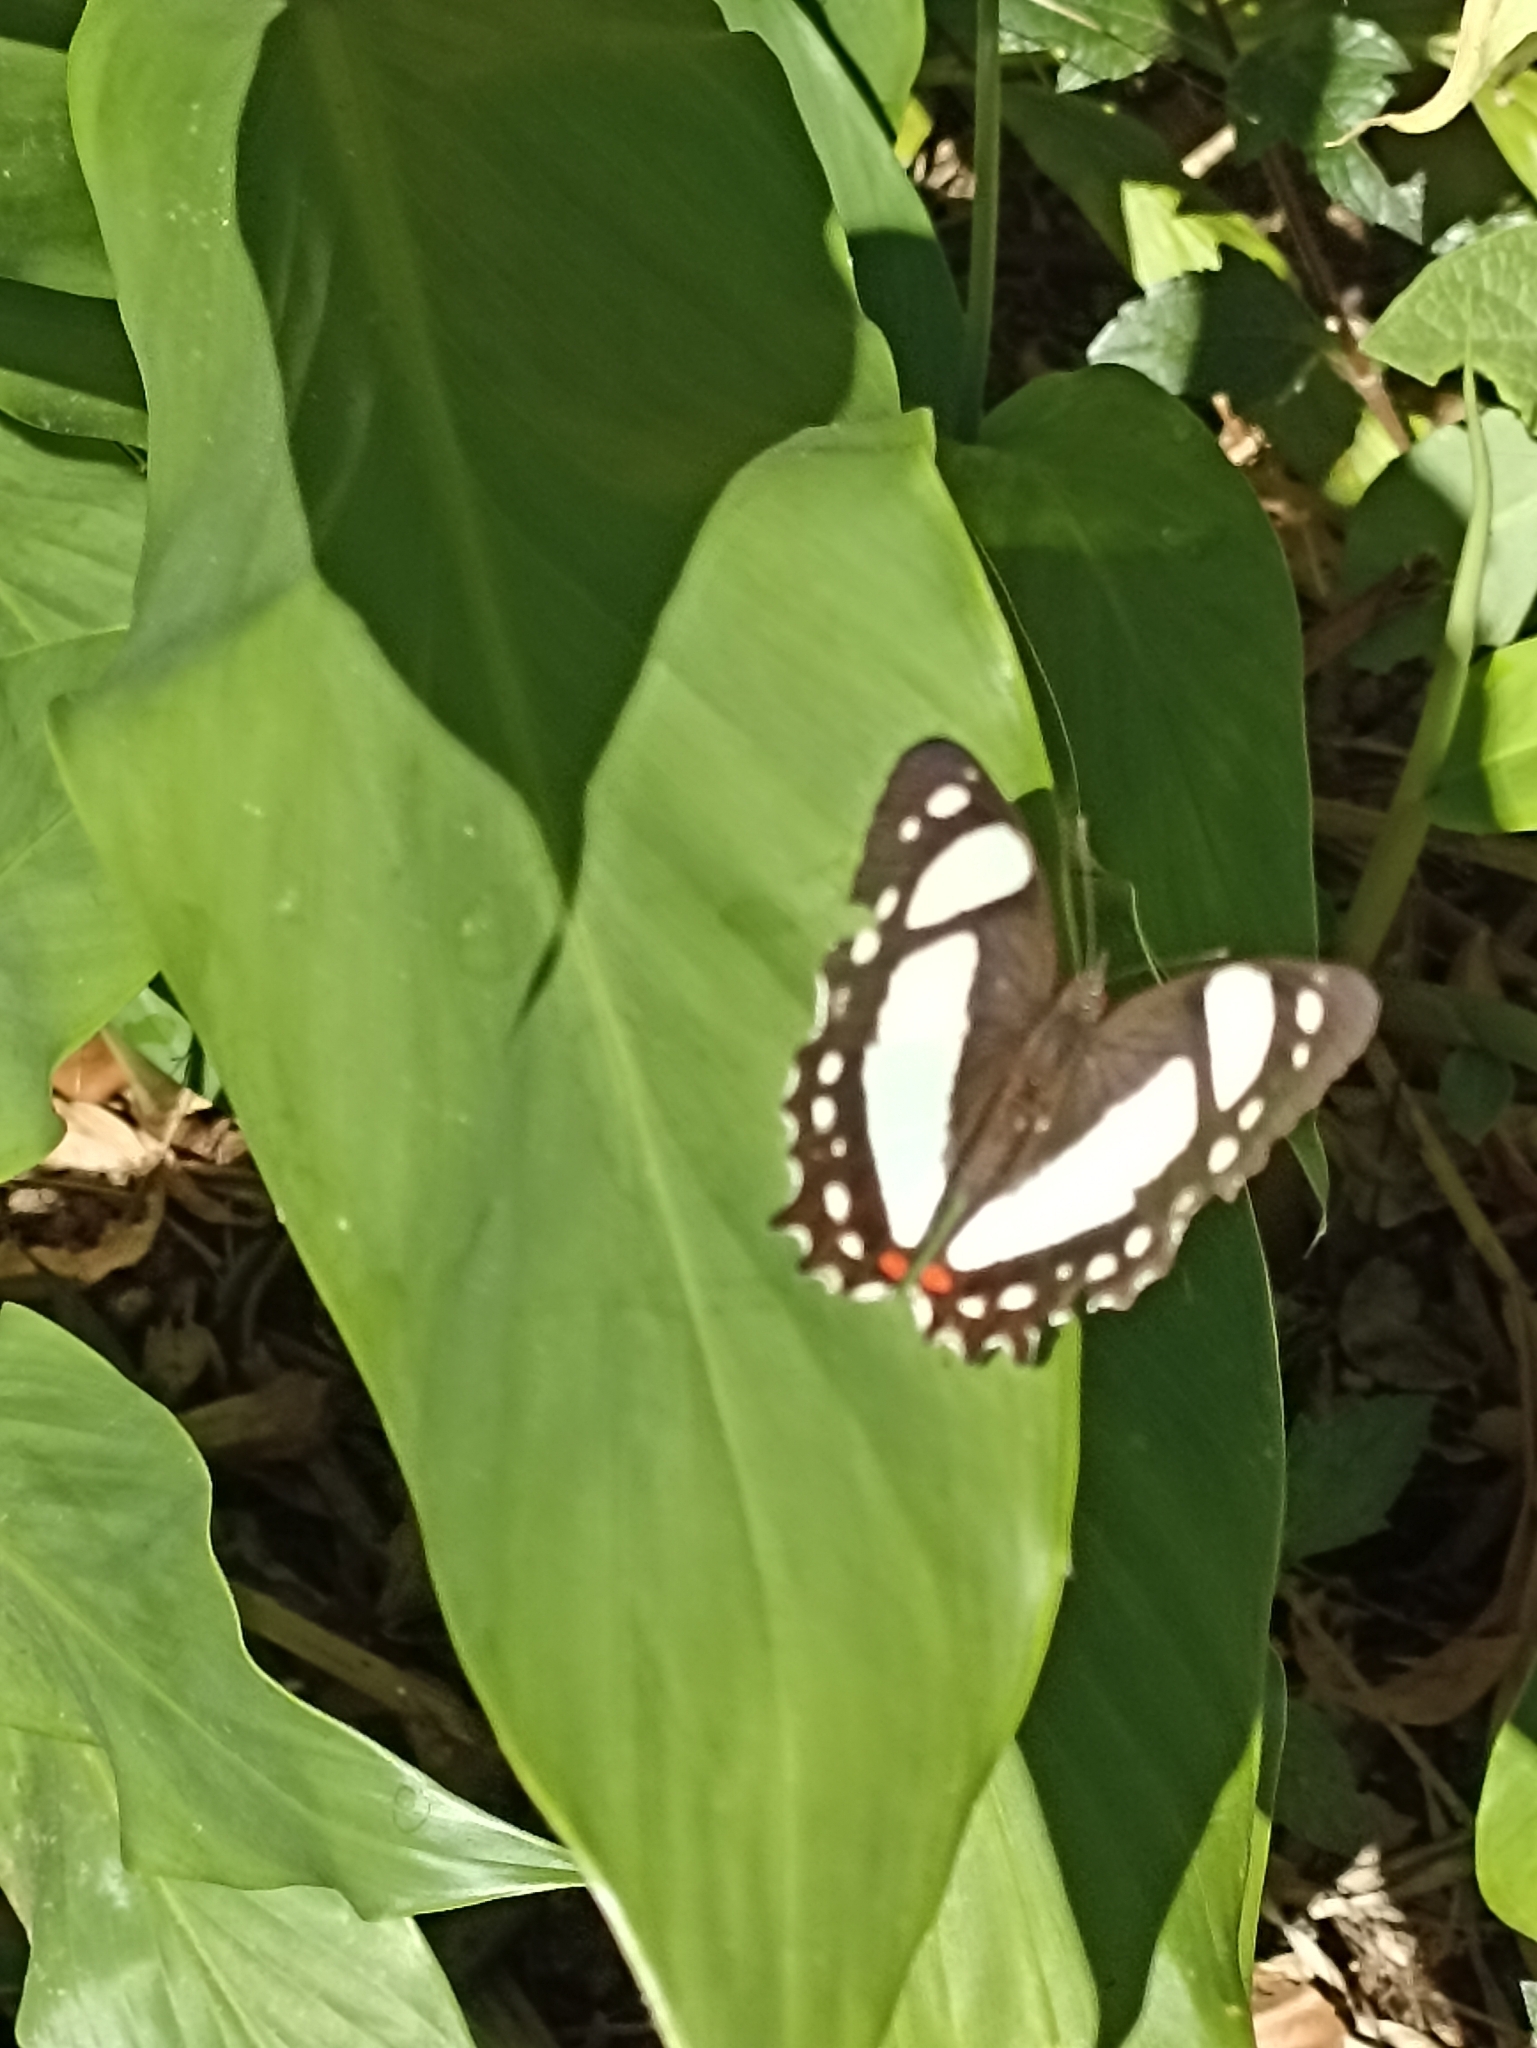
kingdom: Animalia
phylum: Arthropoda
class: Insecta
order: Lepidoptera
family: Nymphalidae
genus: Pyrrhogyra
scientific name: Pyrrhogyra neaerea
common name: Leading red-ring
